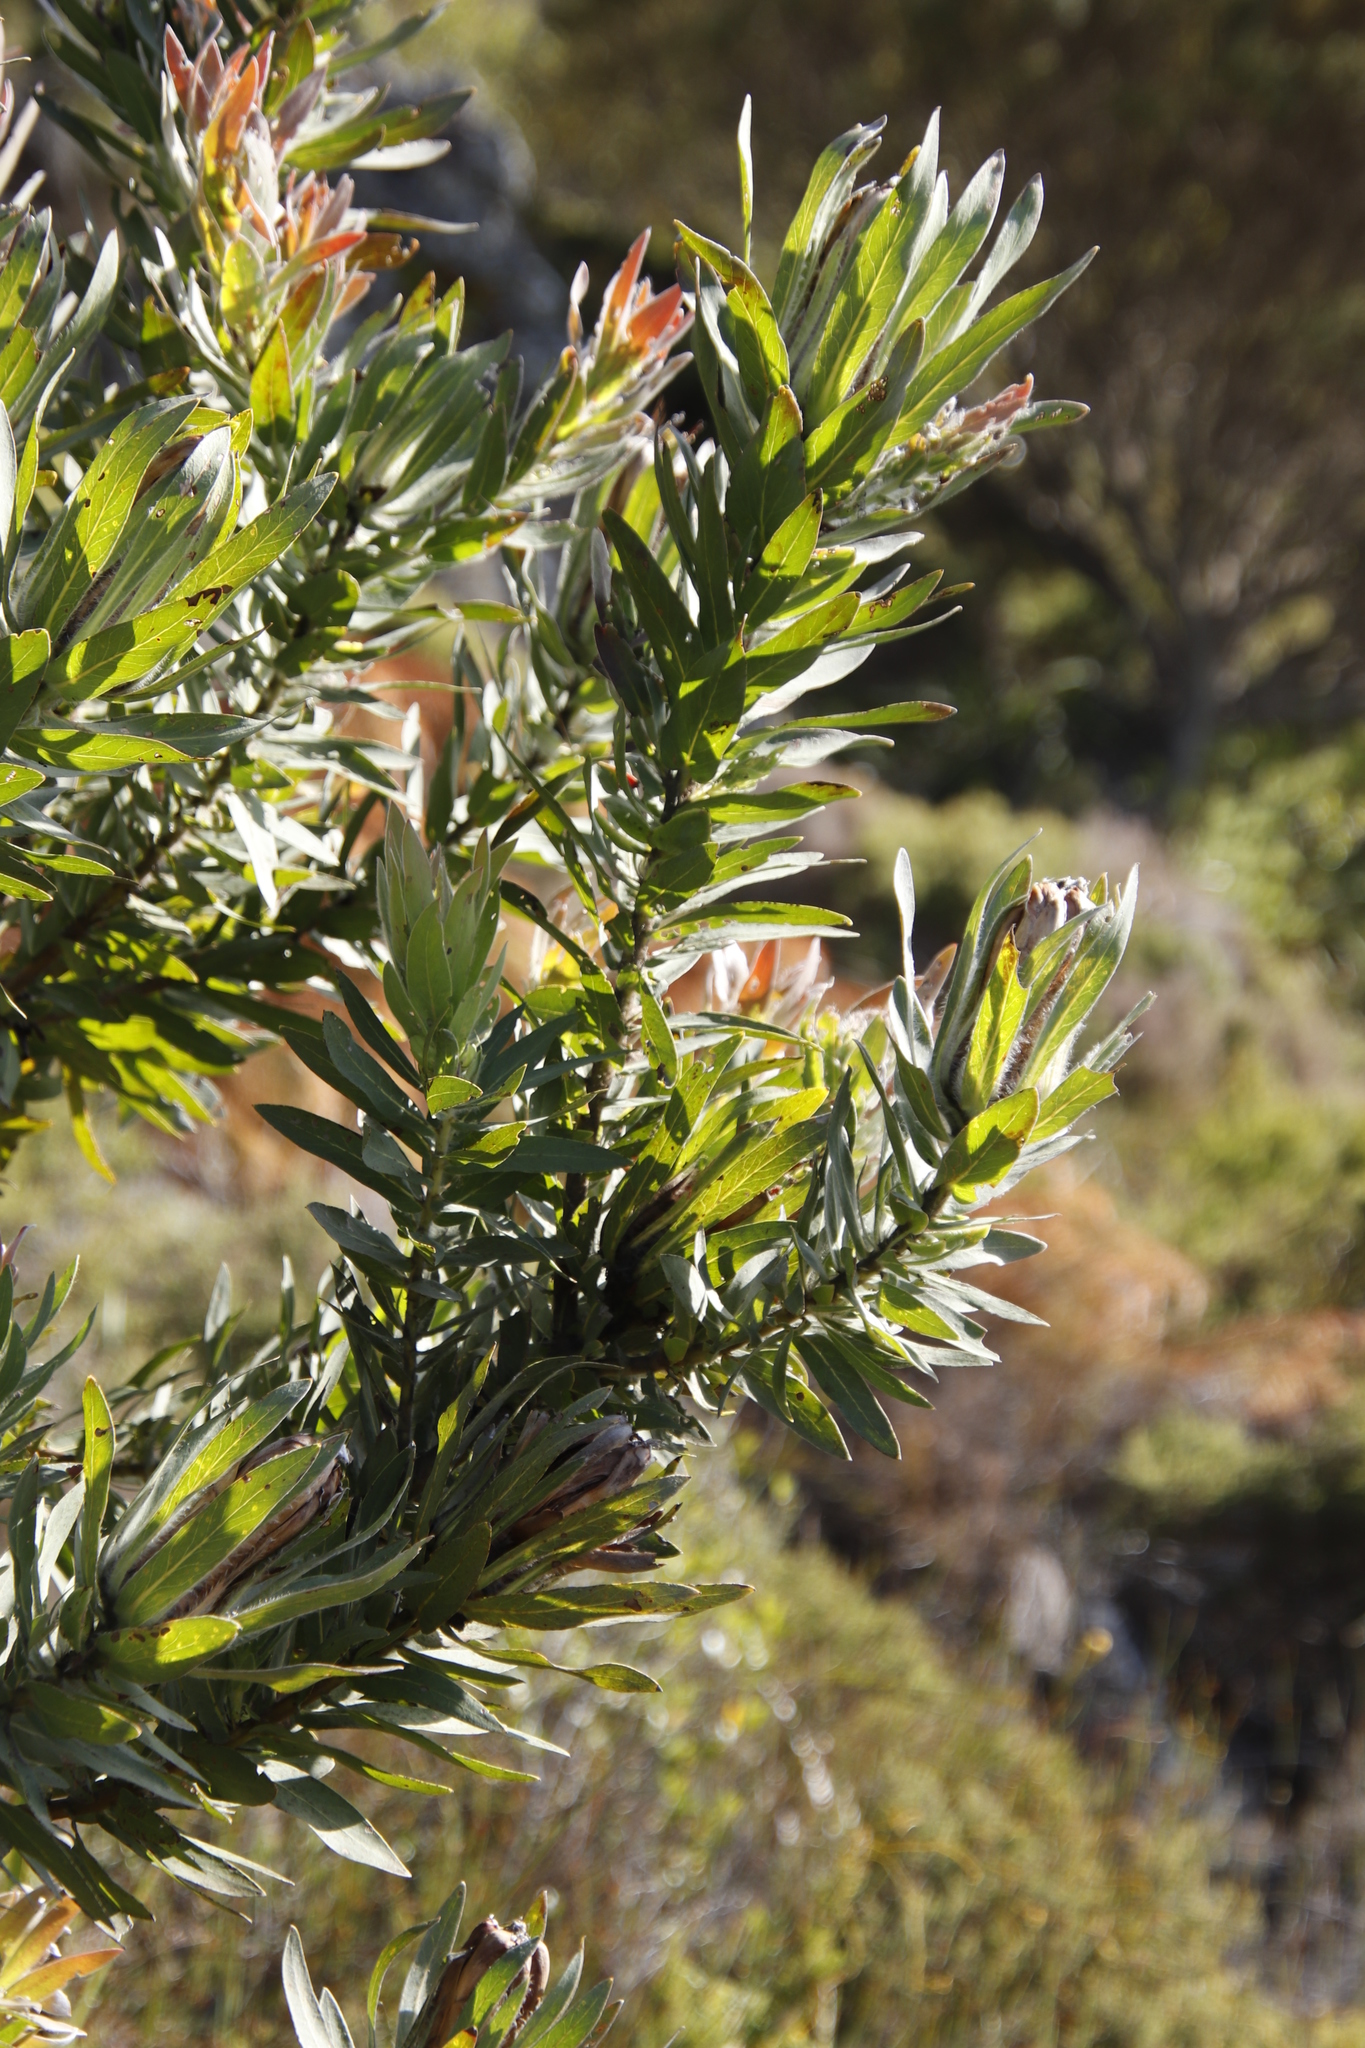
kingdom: Plantae
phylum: Tracheophyta
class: Magnoliopsida
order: Proteales
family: Proteaceae
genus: Protea
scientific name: Protea coronata
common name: Green sugarbush
